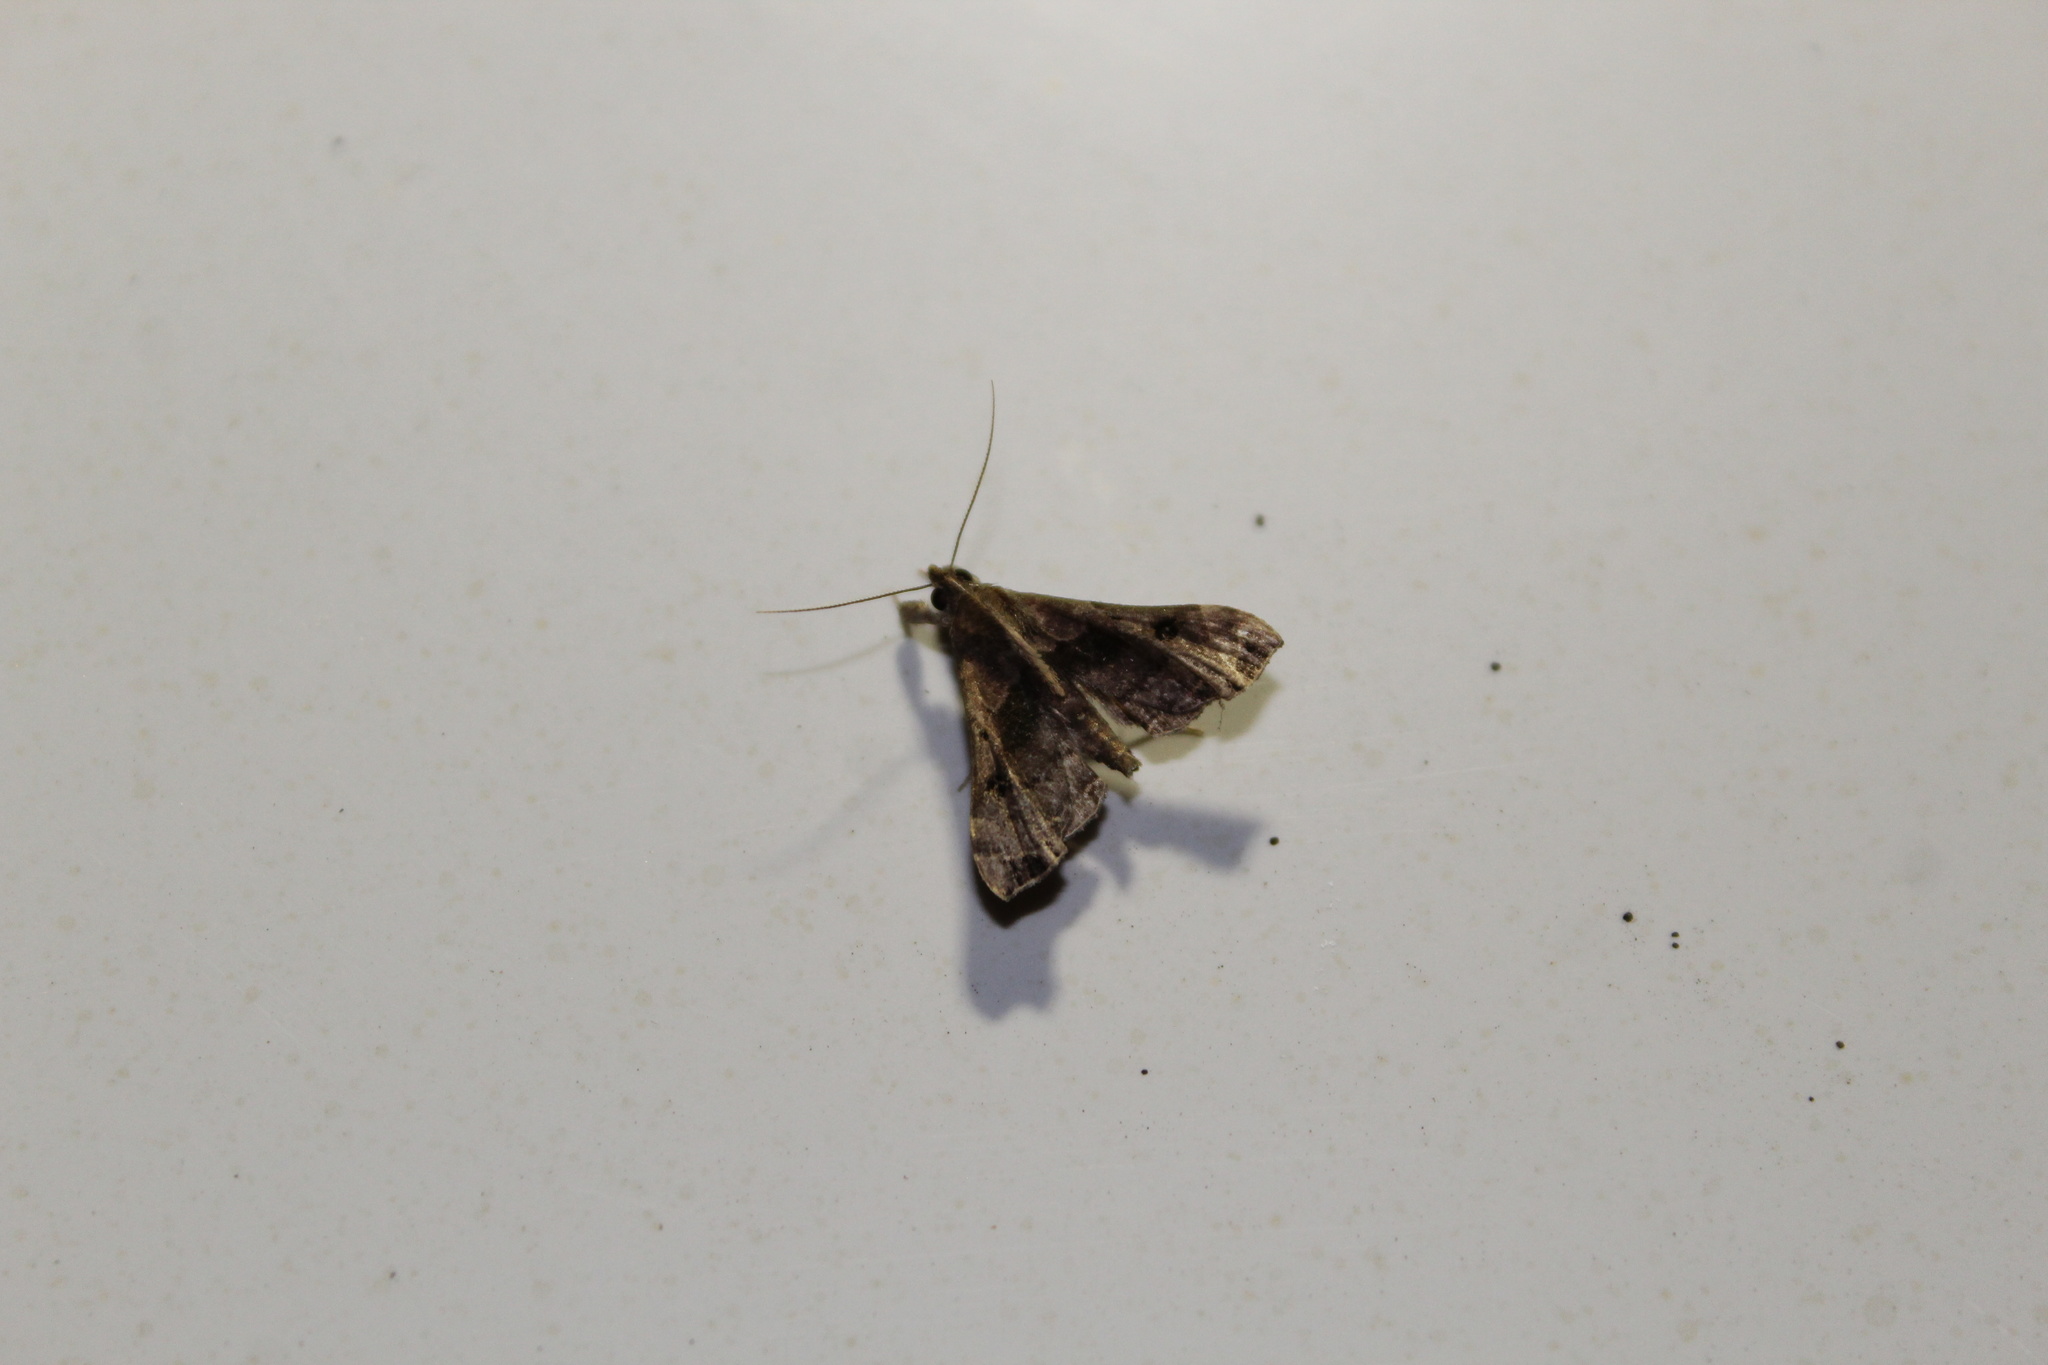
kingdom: Animalia
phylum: Arthropoda
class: Insecta
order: Lepidoptera
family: Erebidae
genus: Palthis
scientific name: Palthis asopialis
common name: Faint-spotted palthis moth
